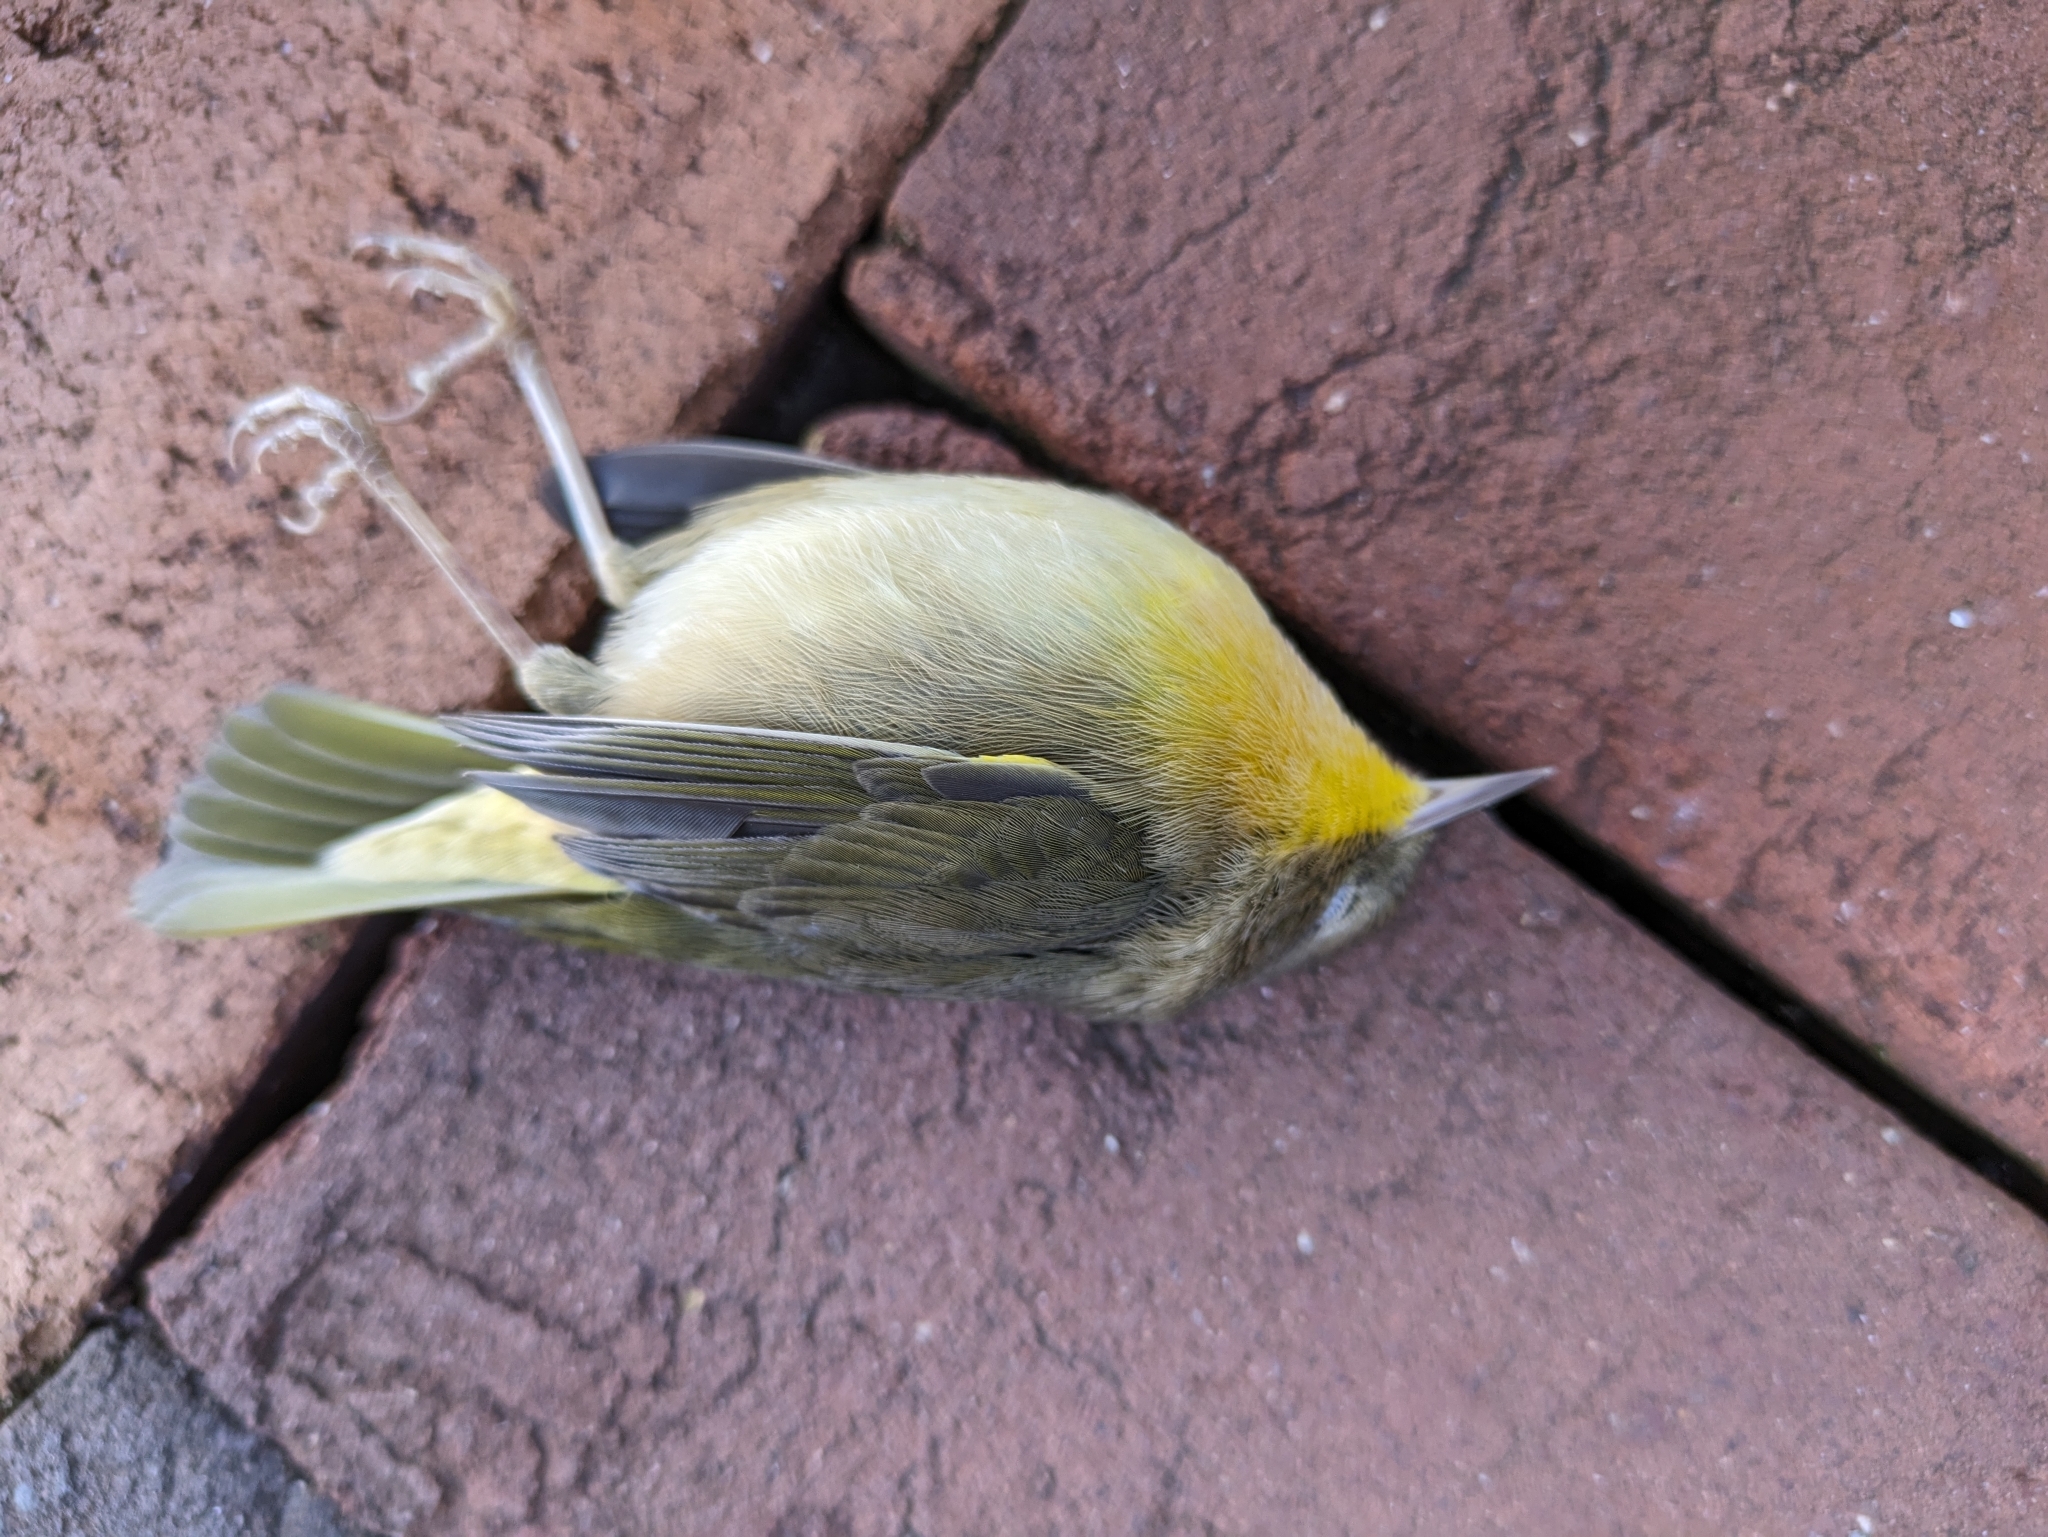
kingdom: Animalia
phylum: Chordata
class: Aves
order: Passeriformes
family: Parulidae
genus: Geothlypis
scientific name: Geothlypis trichas
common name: Common yellowthroat
